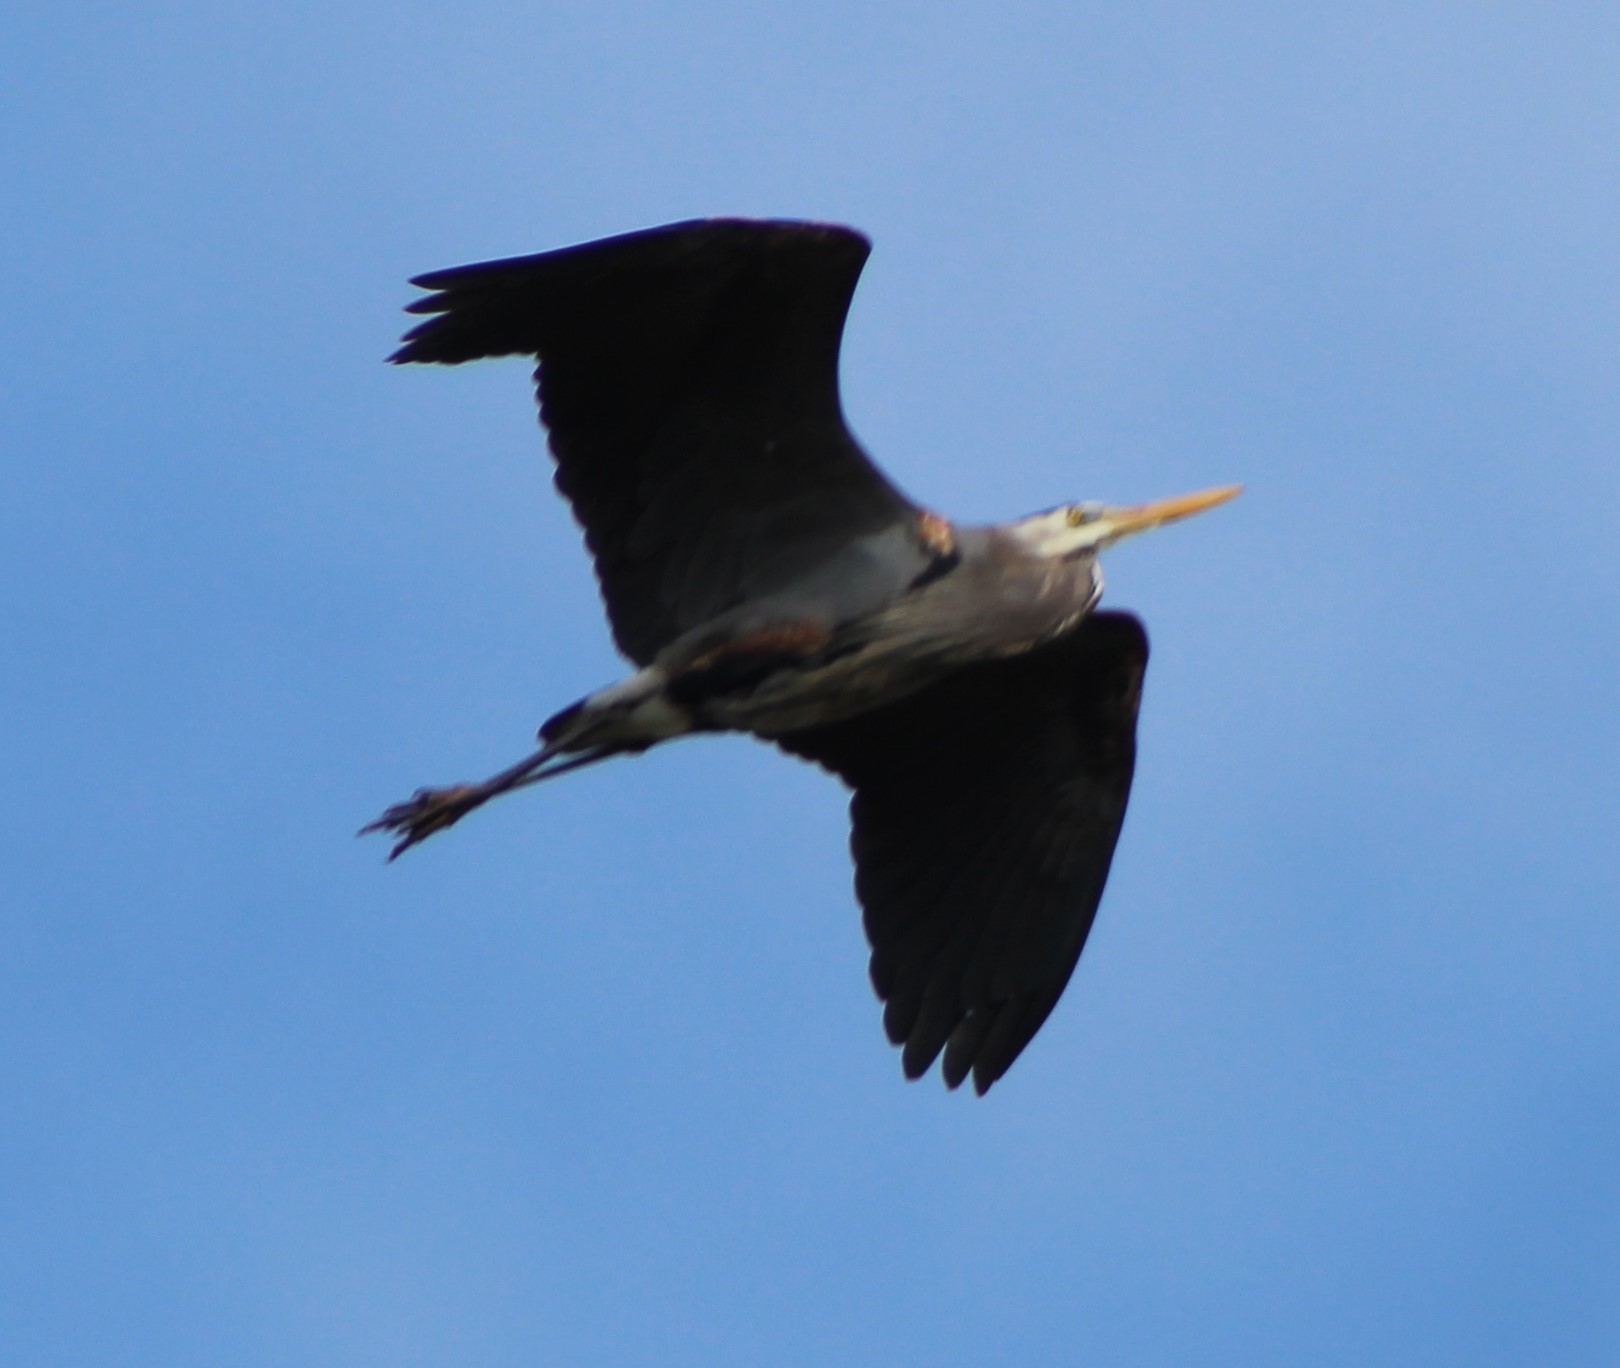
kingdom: Animalia
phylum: Chordata
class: Aves
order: Pelecaniformes
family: Ardeidae
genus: Ardea
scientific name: Ardea herodias
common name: Great blue heron
